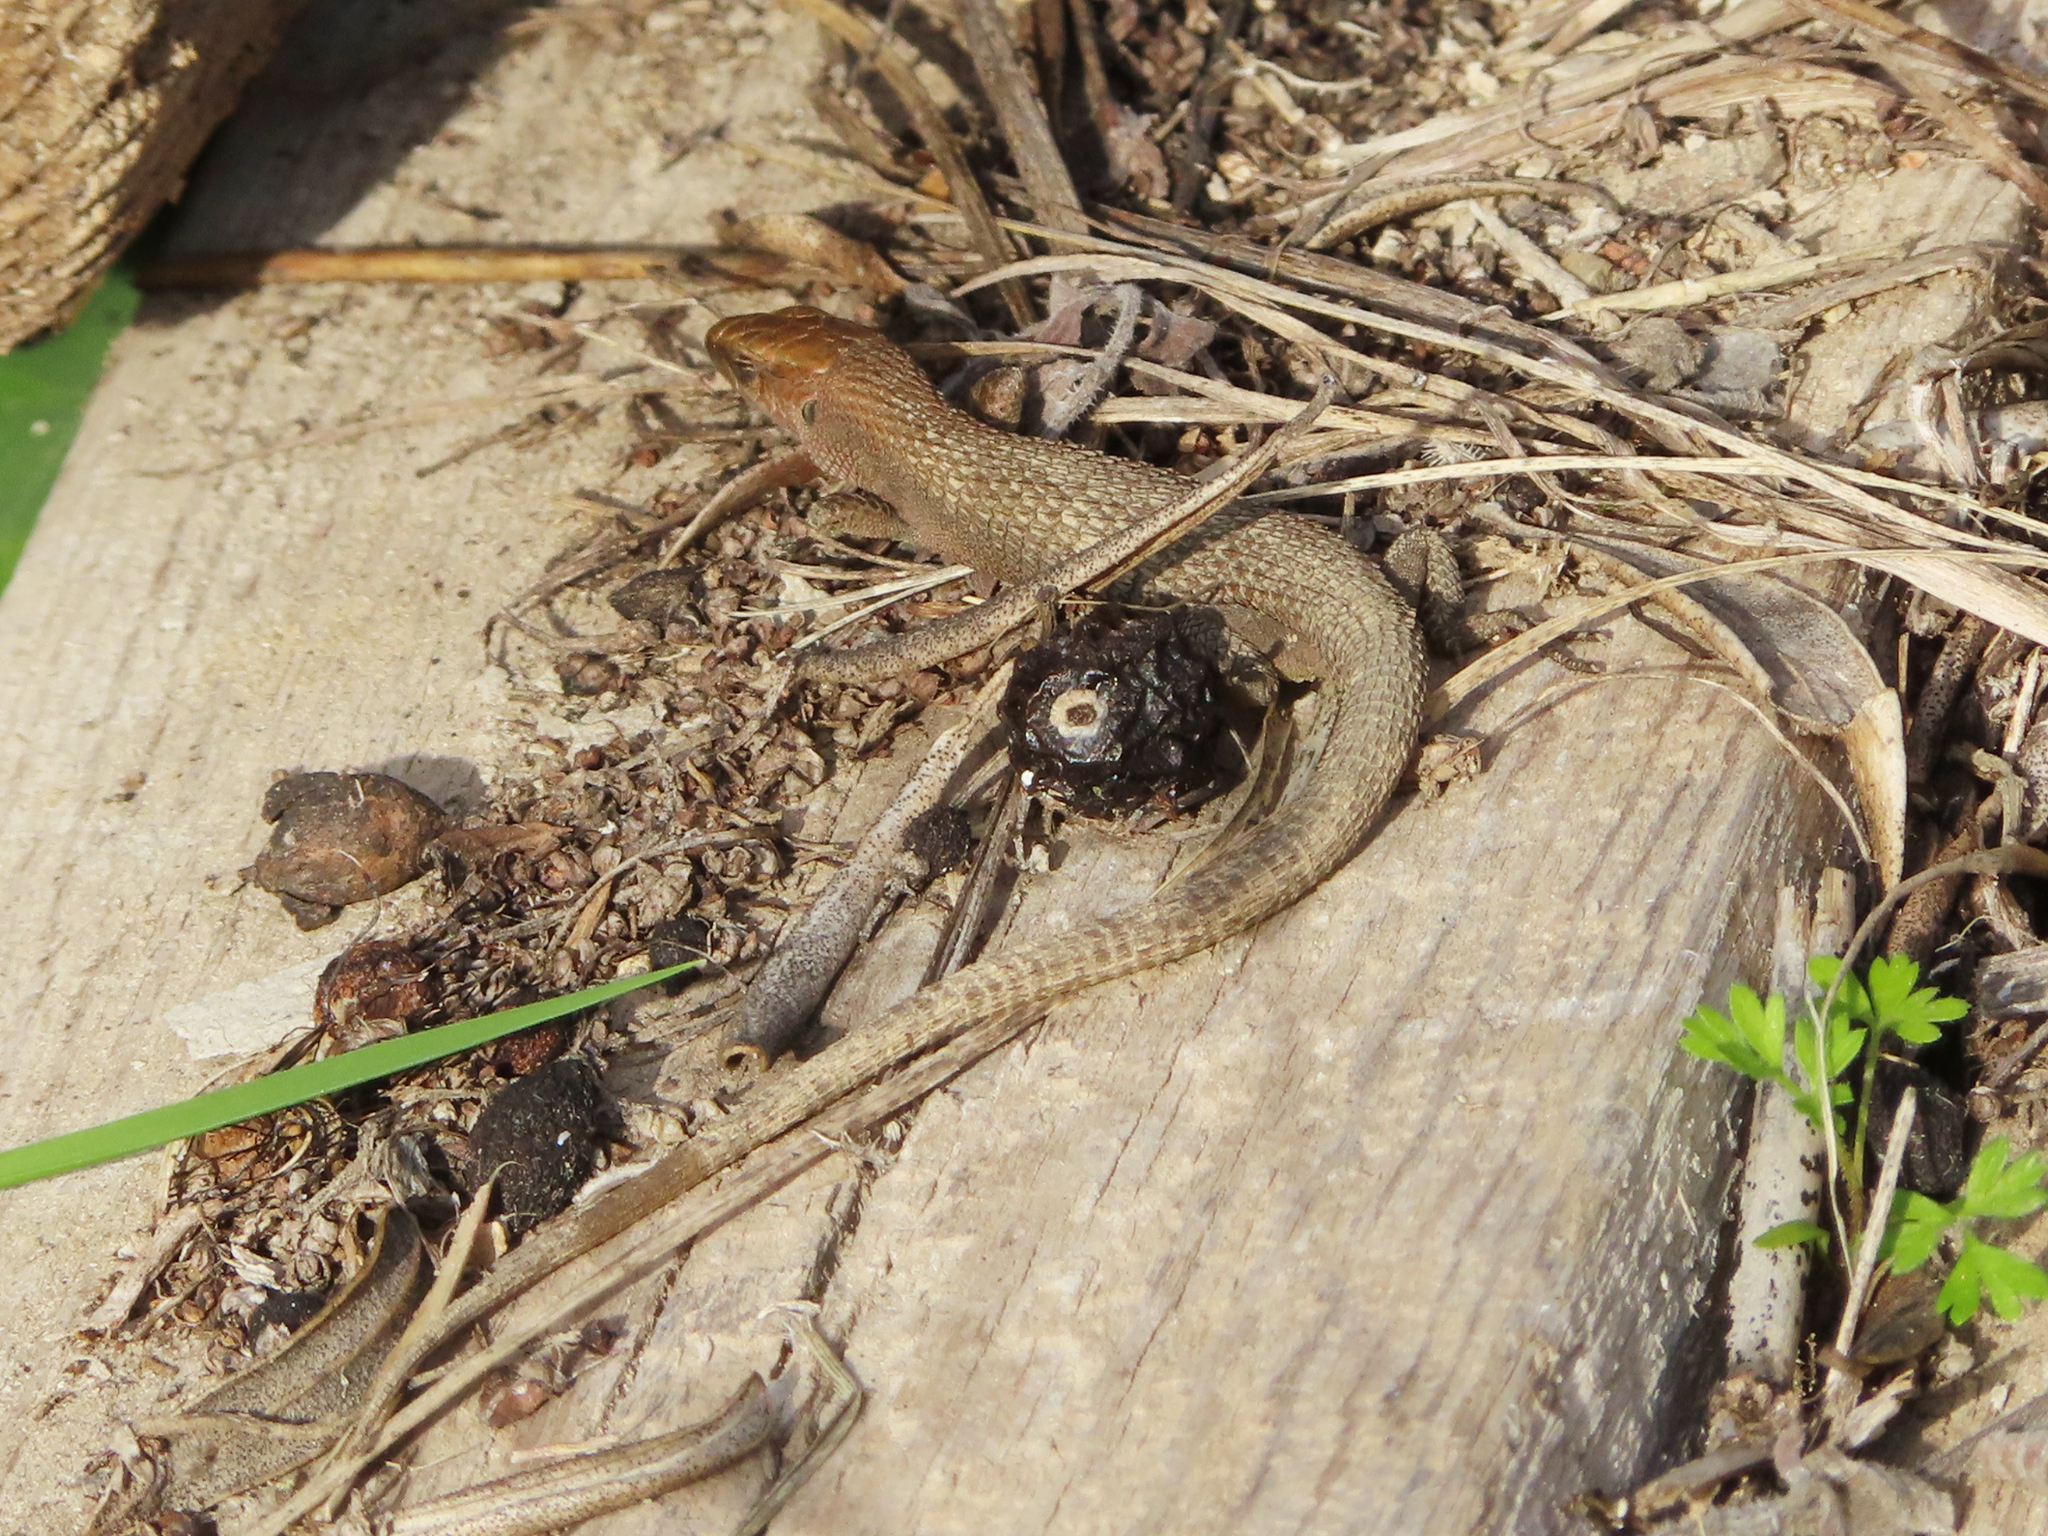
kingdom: Animalia
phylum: Chordata
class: Squamata
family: Lacertidae
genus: Algyroides
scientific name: Algyroides moreoticus
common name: Greek algyroides
